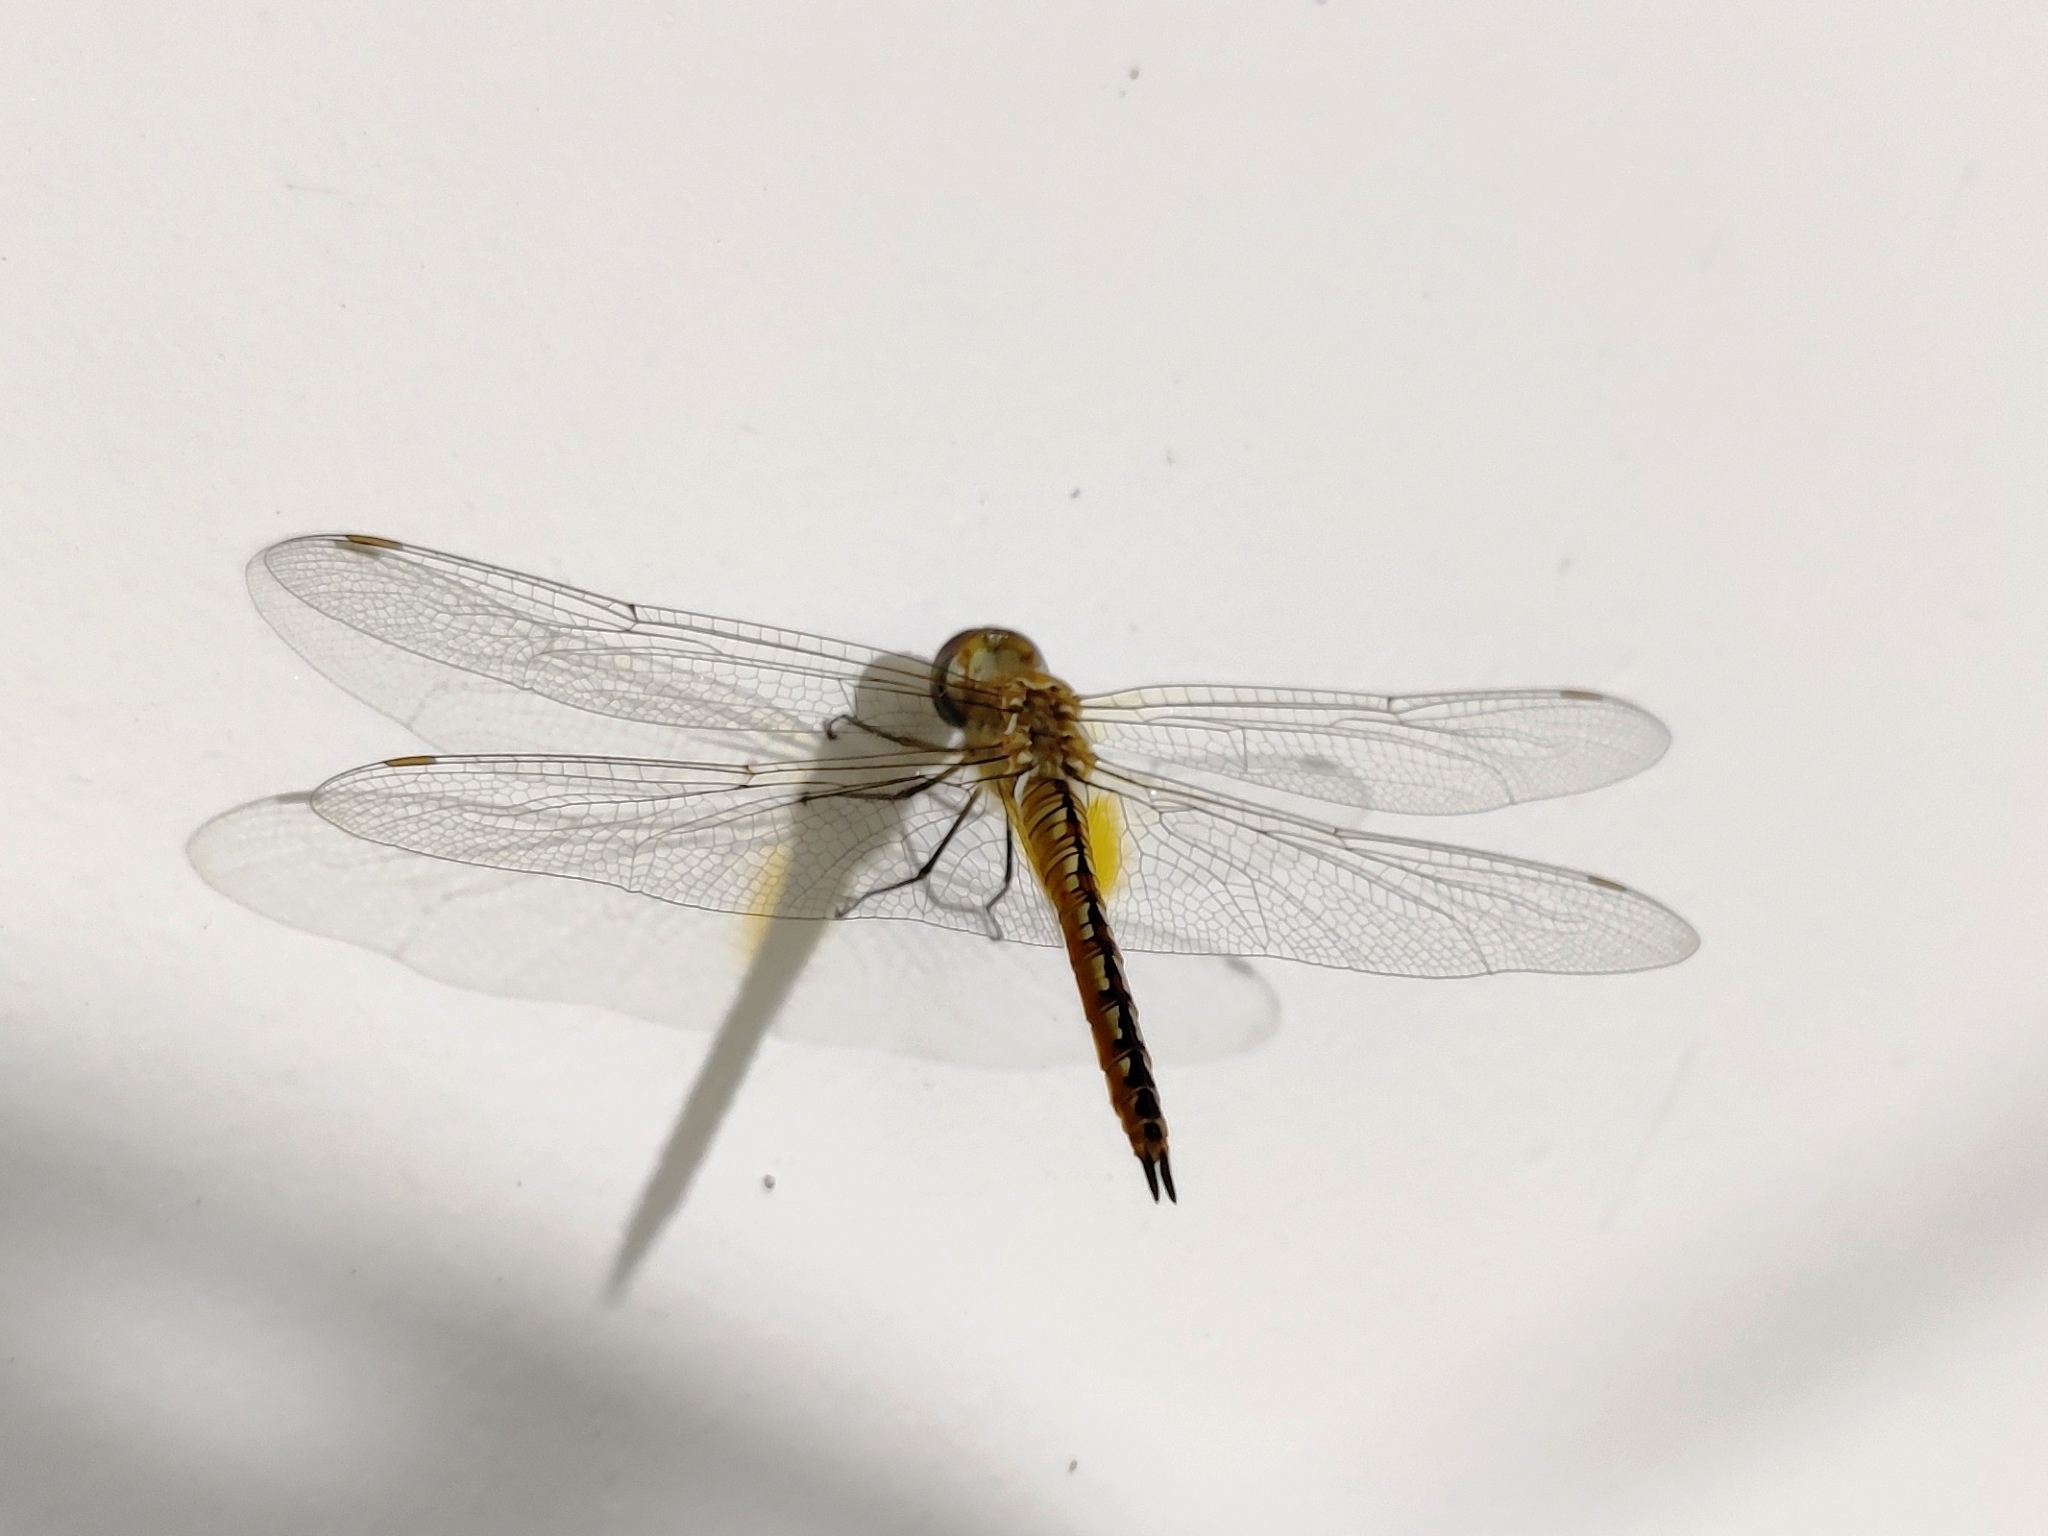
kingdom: Animalia
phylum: Arthropoda
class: Insecta
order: Odonata
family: Libellulidae
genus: Pantala
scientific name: Pantala flavescens
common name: Wandering glider
